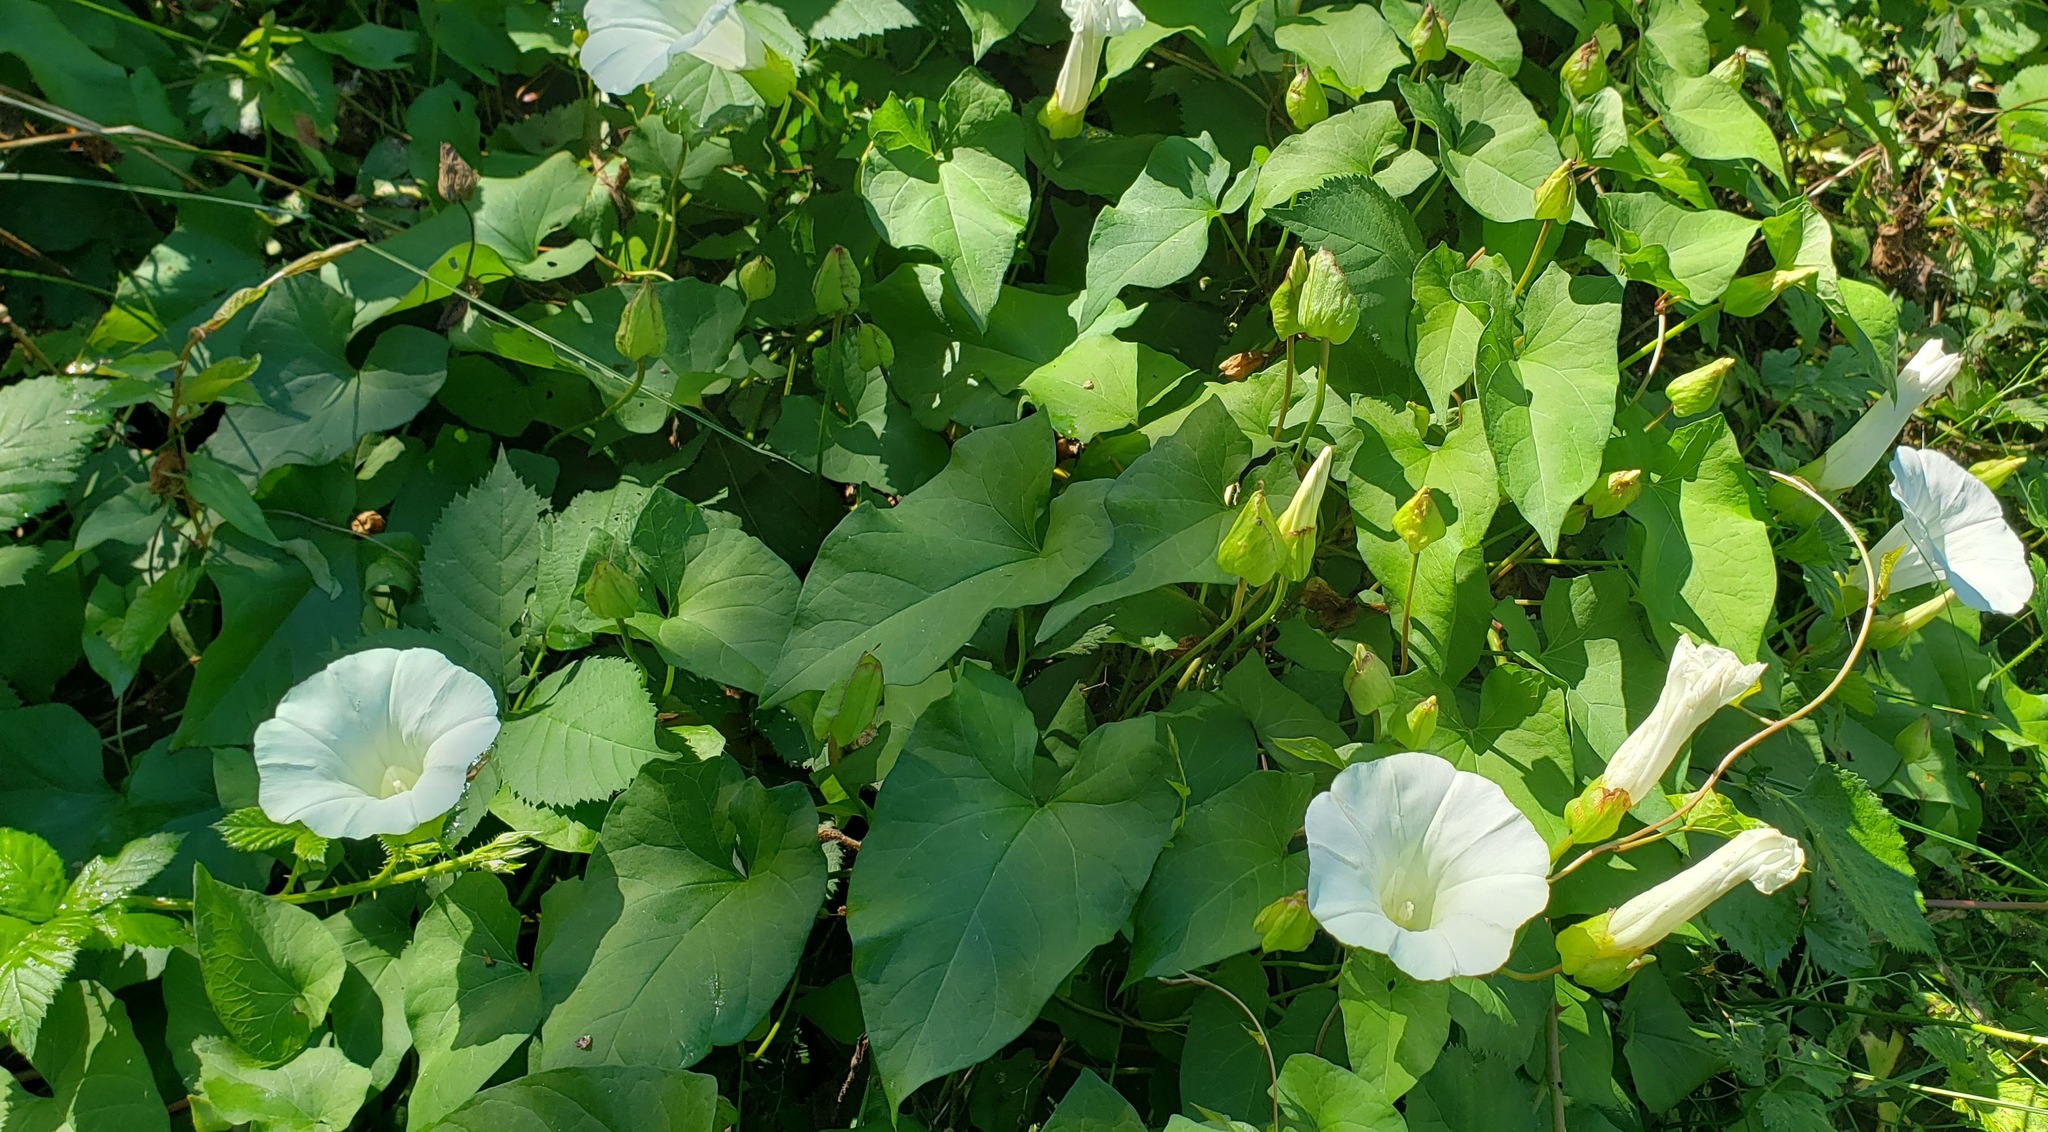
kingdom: Plantae
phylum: Tracheophyta
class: Magnoliopsida
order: Solanales
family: Convolvulaceae
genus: Calystegia
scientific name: Calystegia silvatica
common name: Large bindweed
